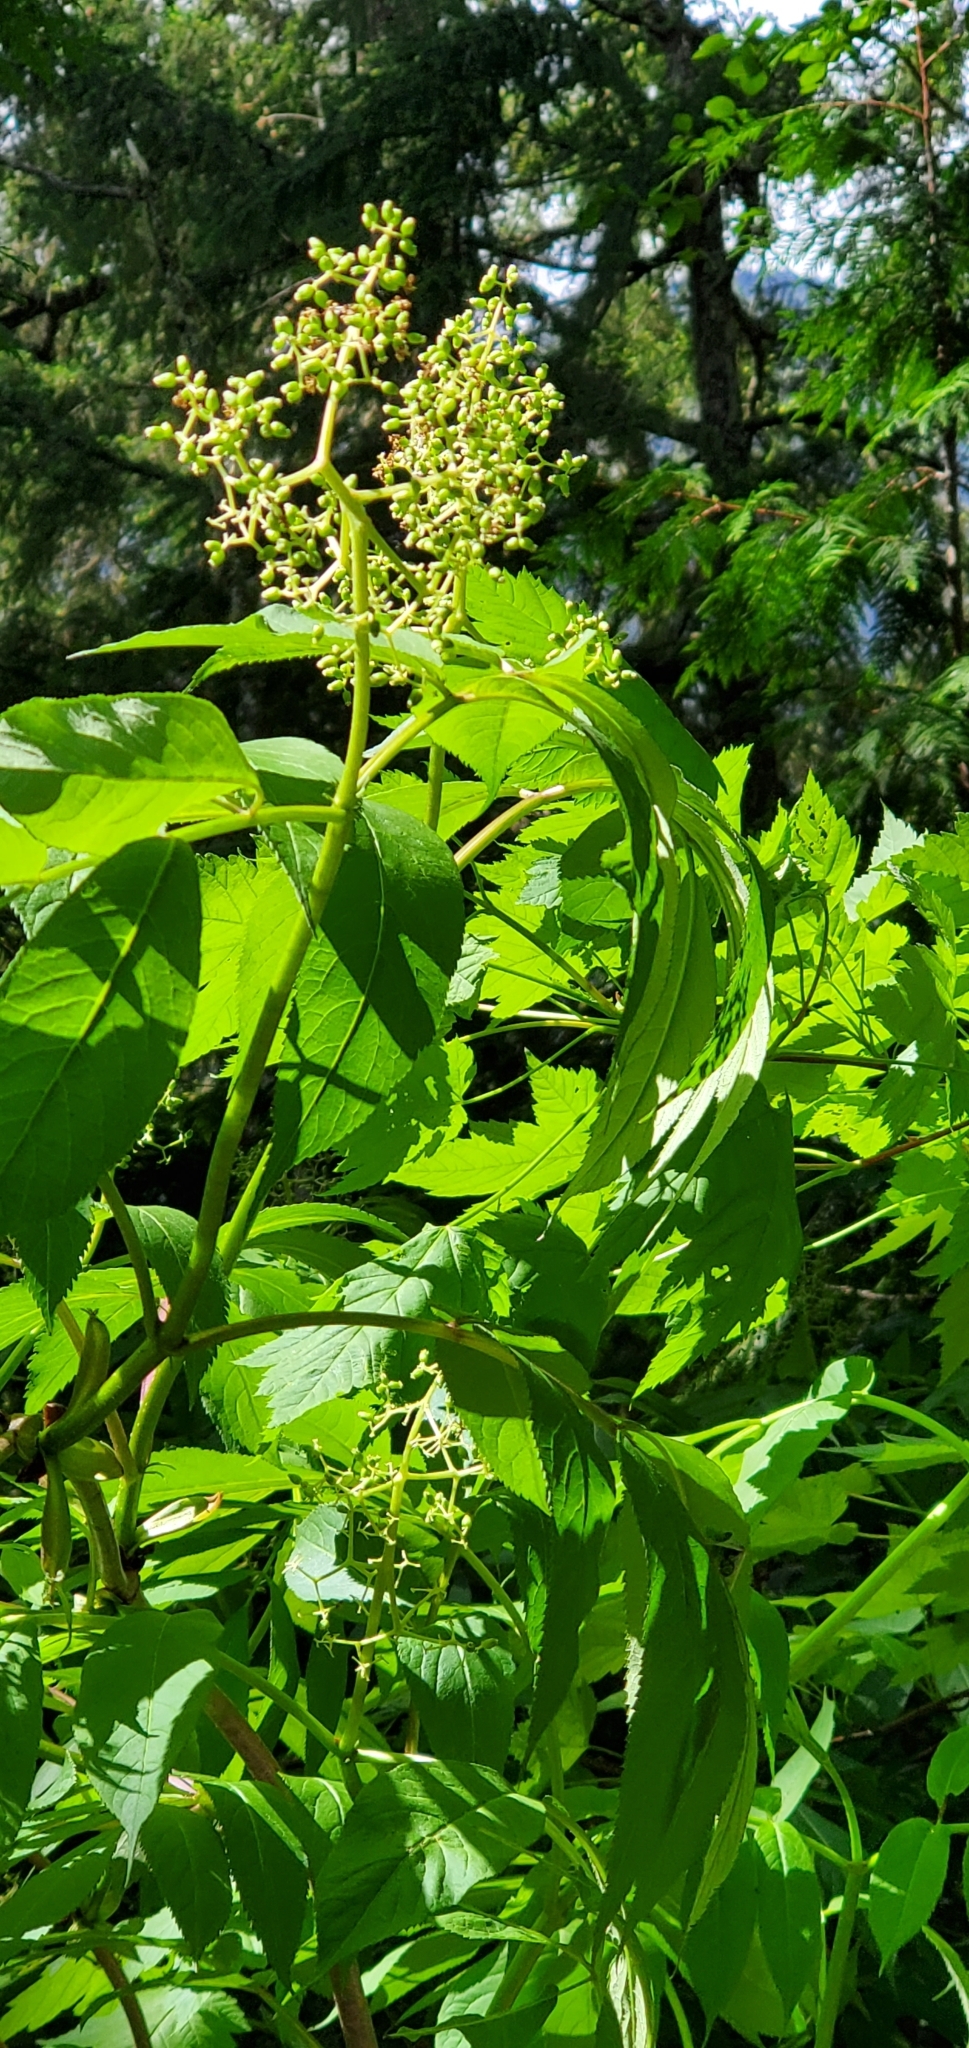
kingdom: Plantae
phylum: Tracheophyta
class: Magnoliopsida
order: Dipsacales
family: Viburnaceae
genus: Sambucus
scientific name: Sambucus racemosa
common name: Red-berried elder
